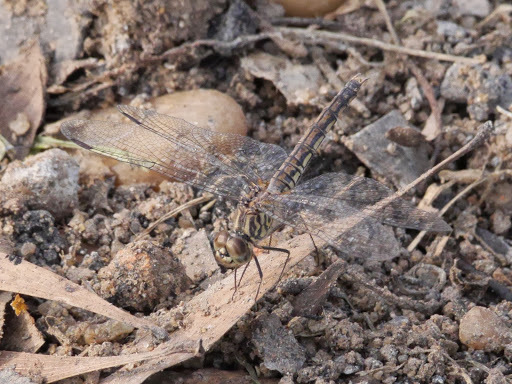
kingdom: Animalia
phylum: Arthropoda
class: Insecta
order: Odonata
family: Libellulidae
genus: Brachythemis
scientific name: Brachythemis leucosticta
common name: Banded groundling
